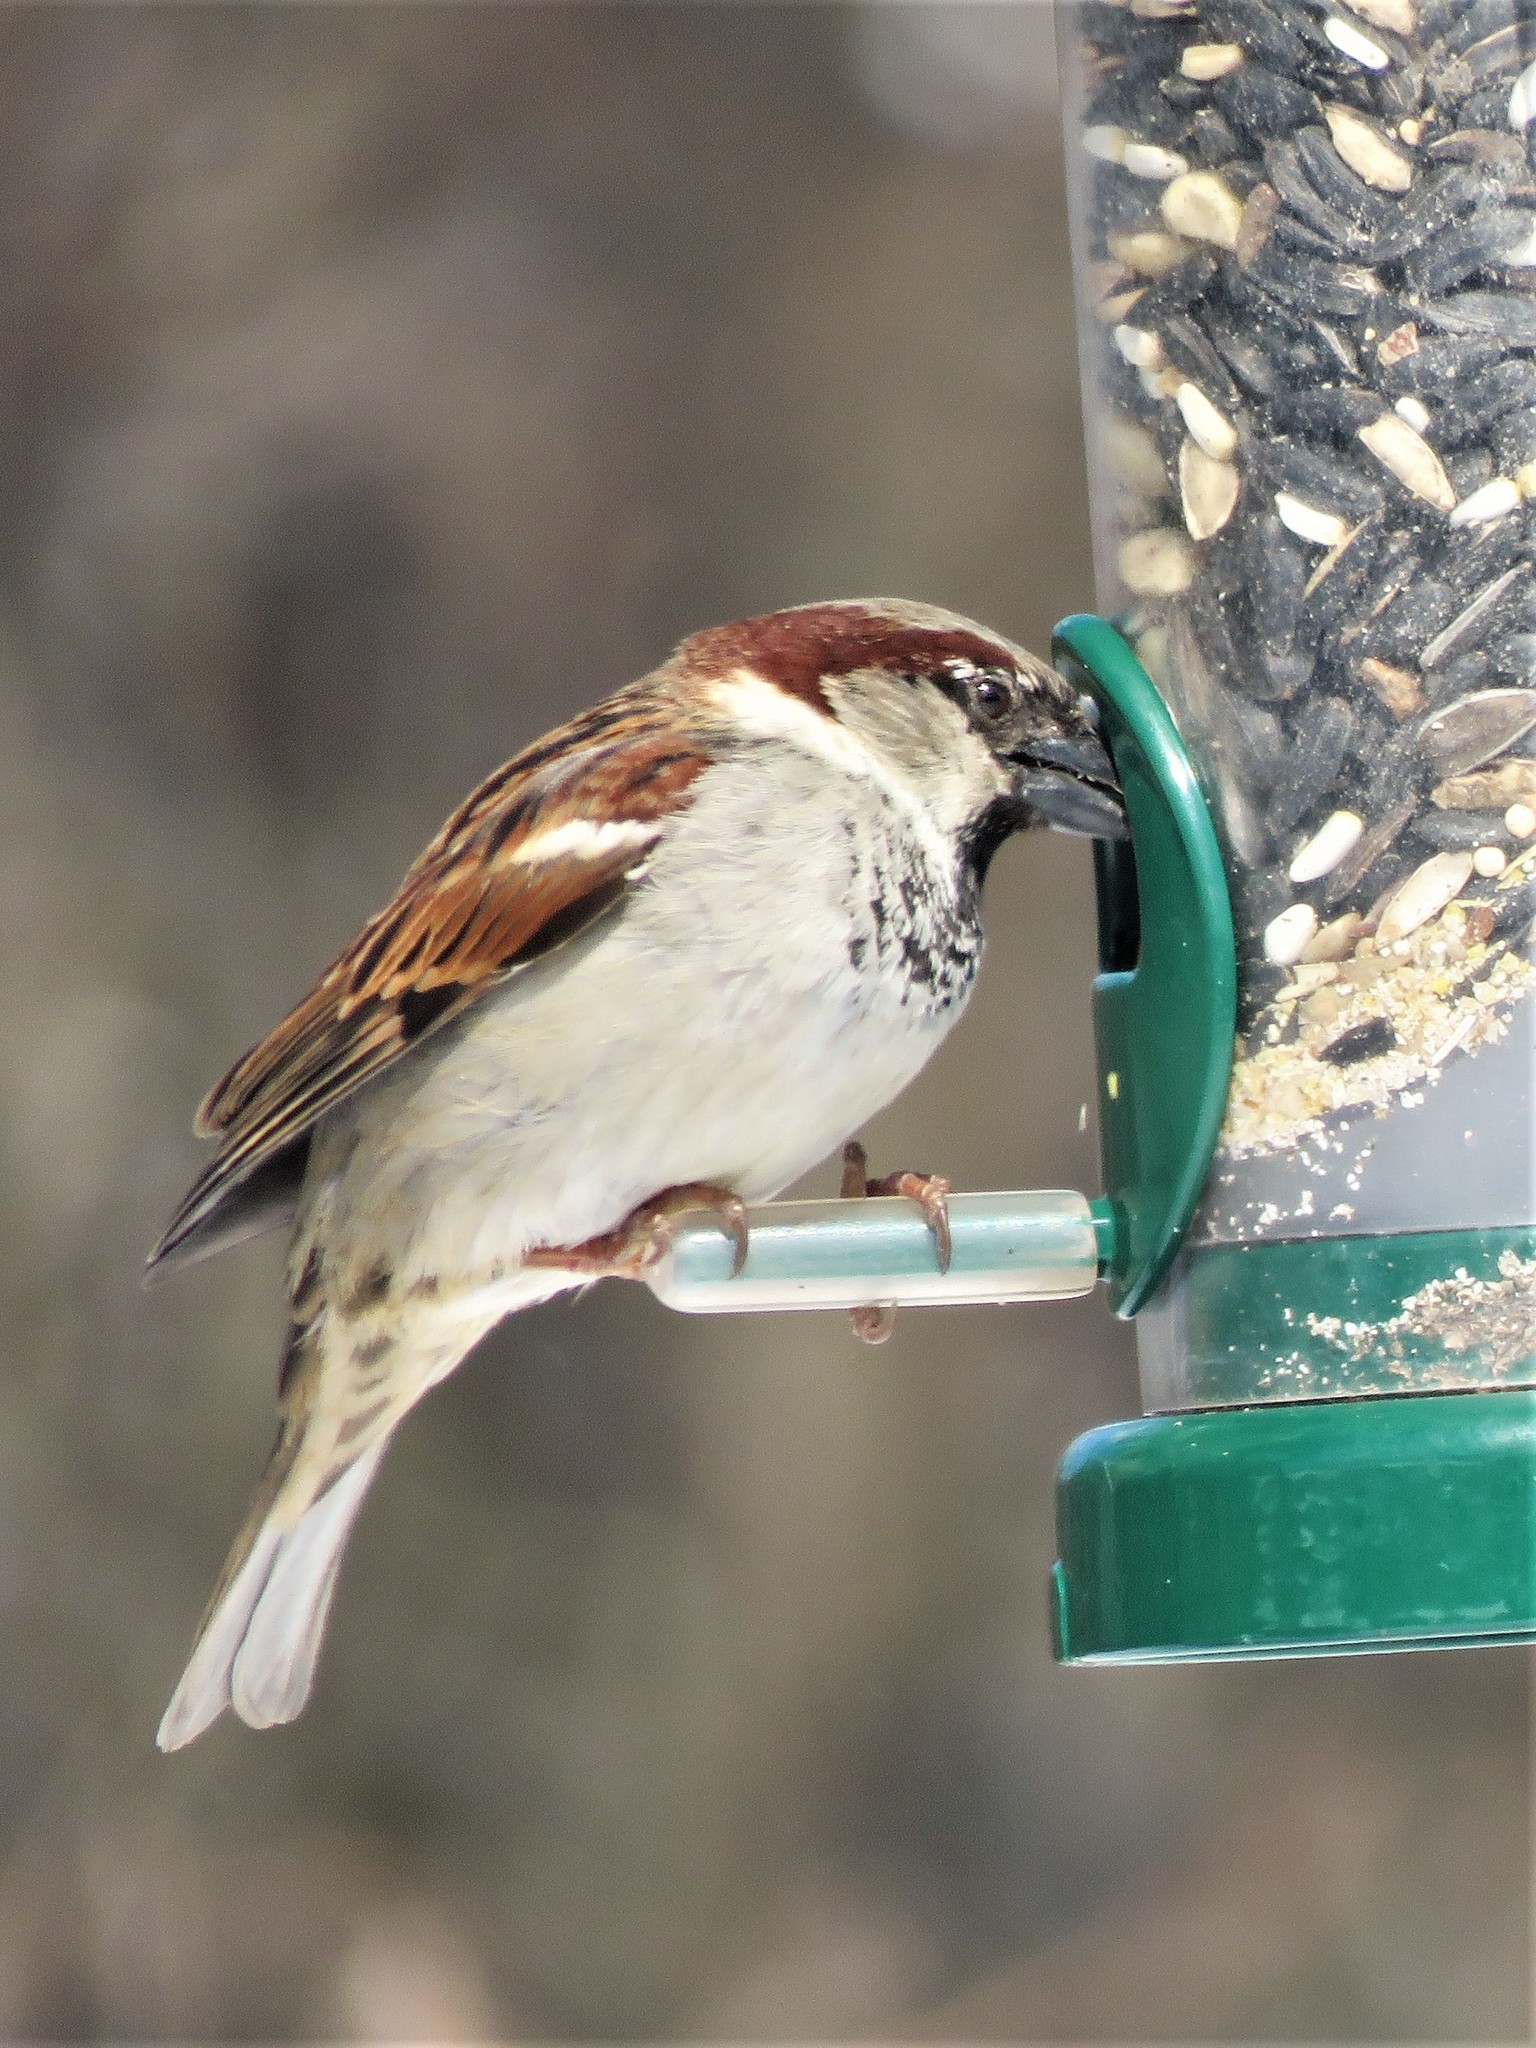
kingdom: Animalia
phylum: Chordata
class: Aves
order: Passeriformes
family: Passeridae
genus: Passer
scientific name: Passer domesticus
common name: House sparrow
